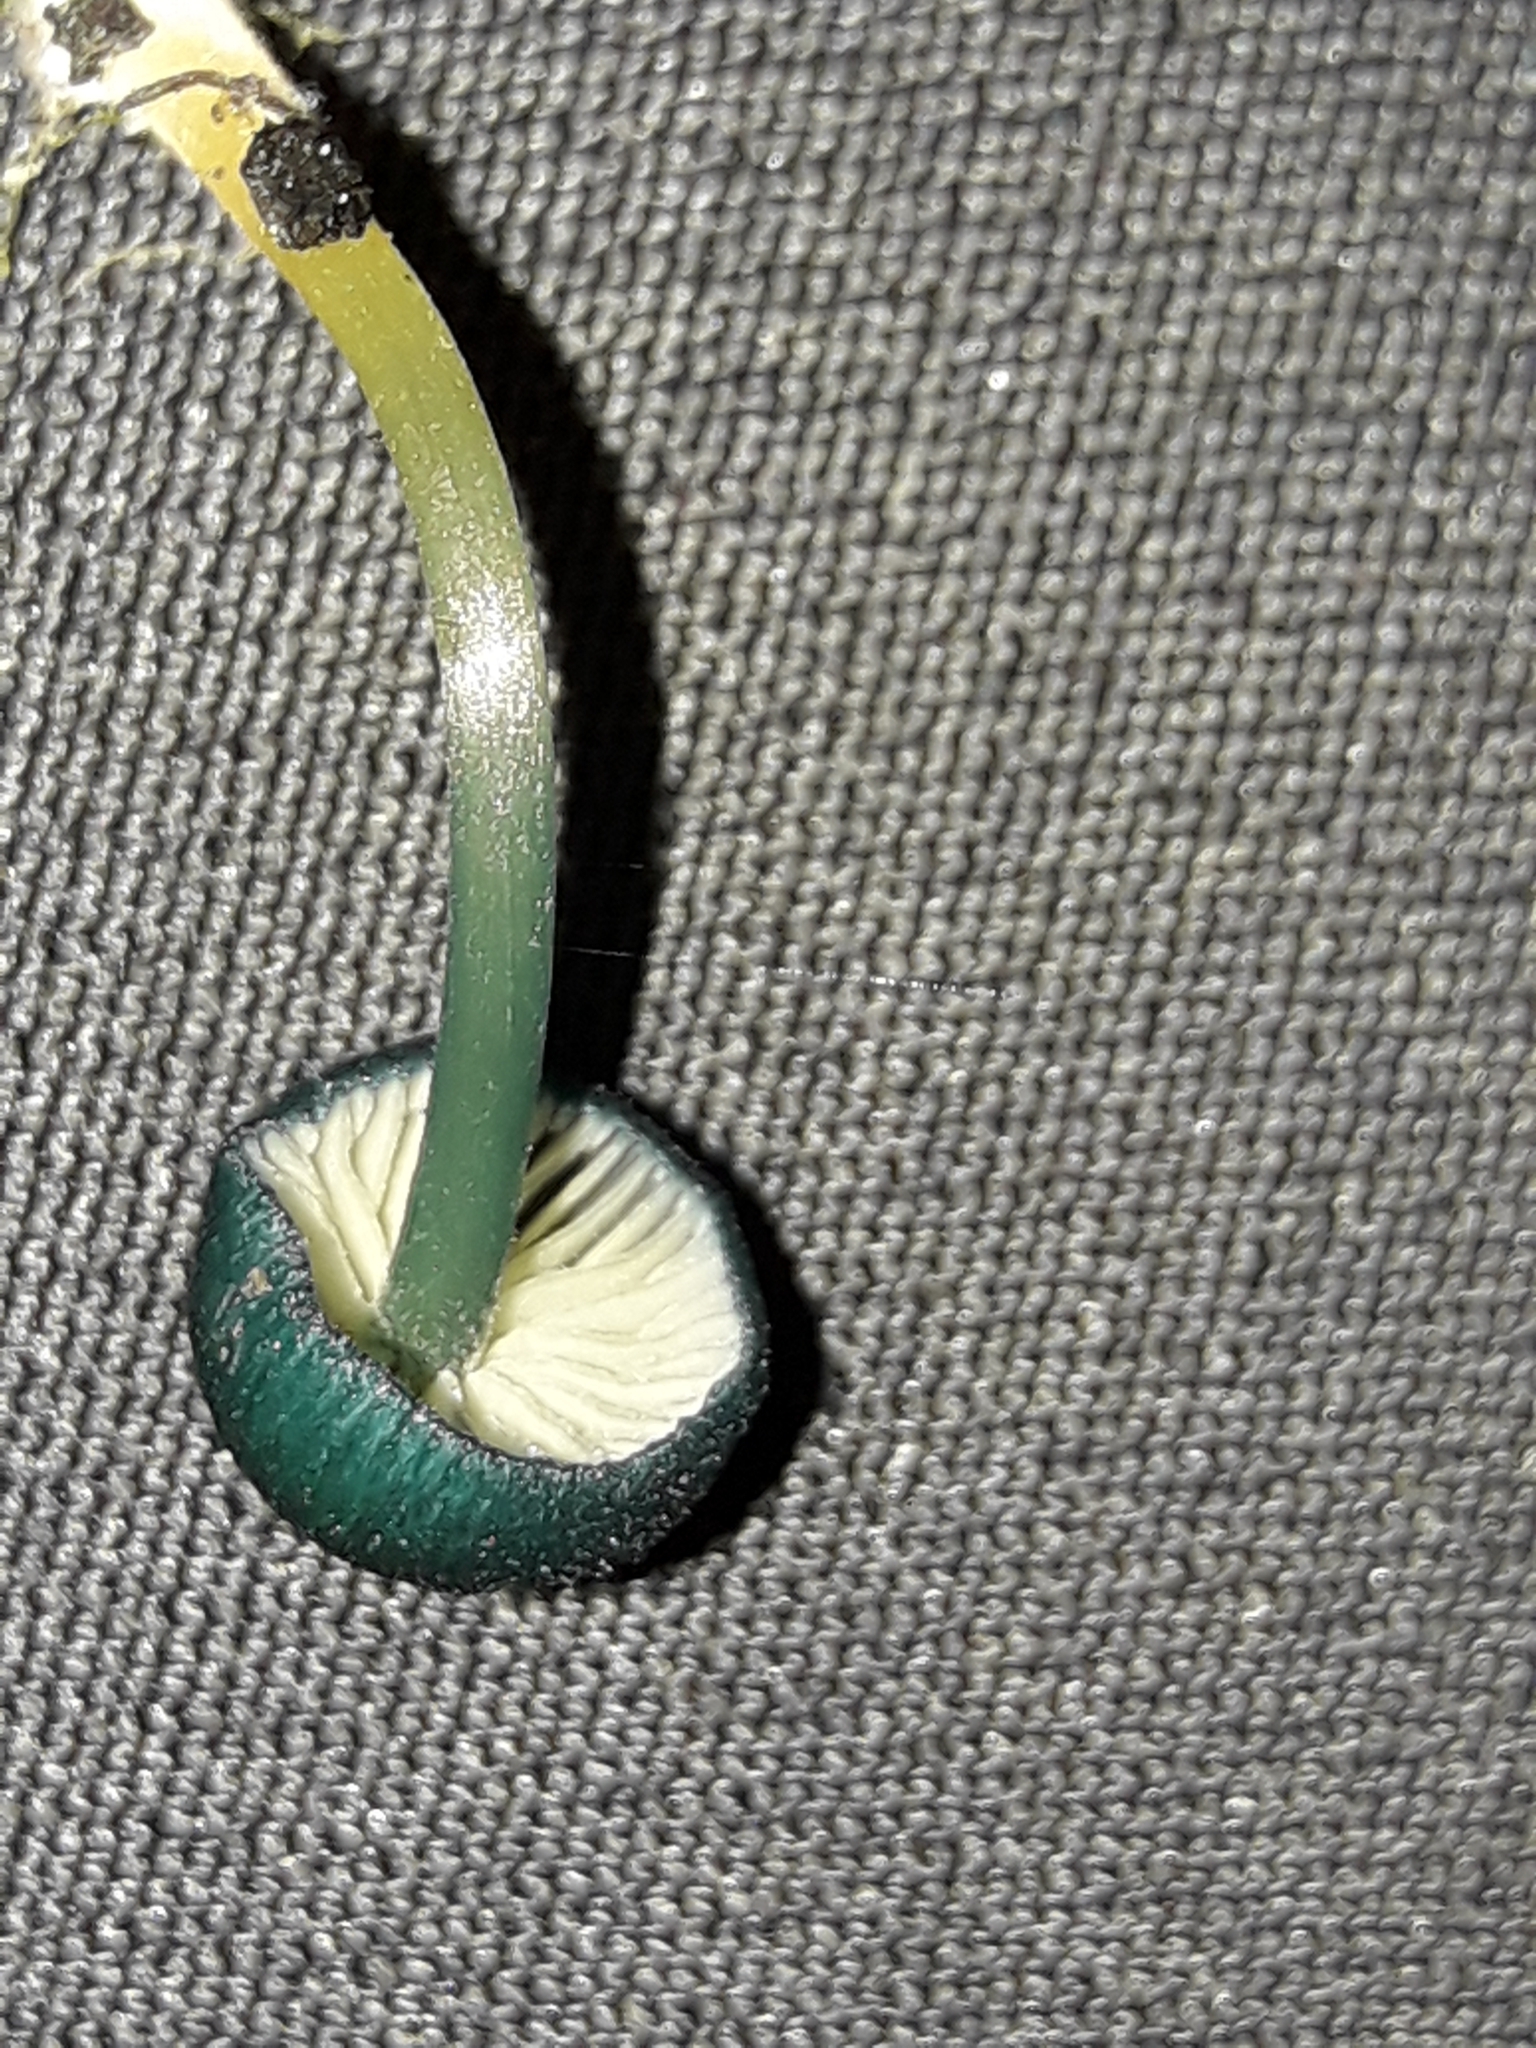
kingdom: Fungi
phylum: Basidiomycota
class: Agaricomycetes
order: Agaricales
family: Entolomataceae
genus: Entoloma
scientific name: Entoloma viridomarginatum
